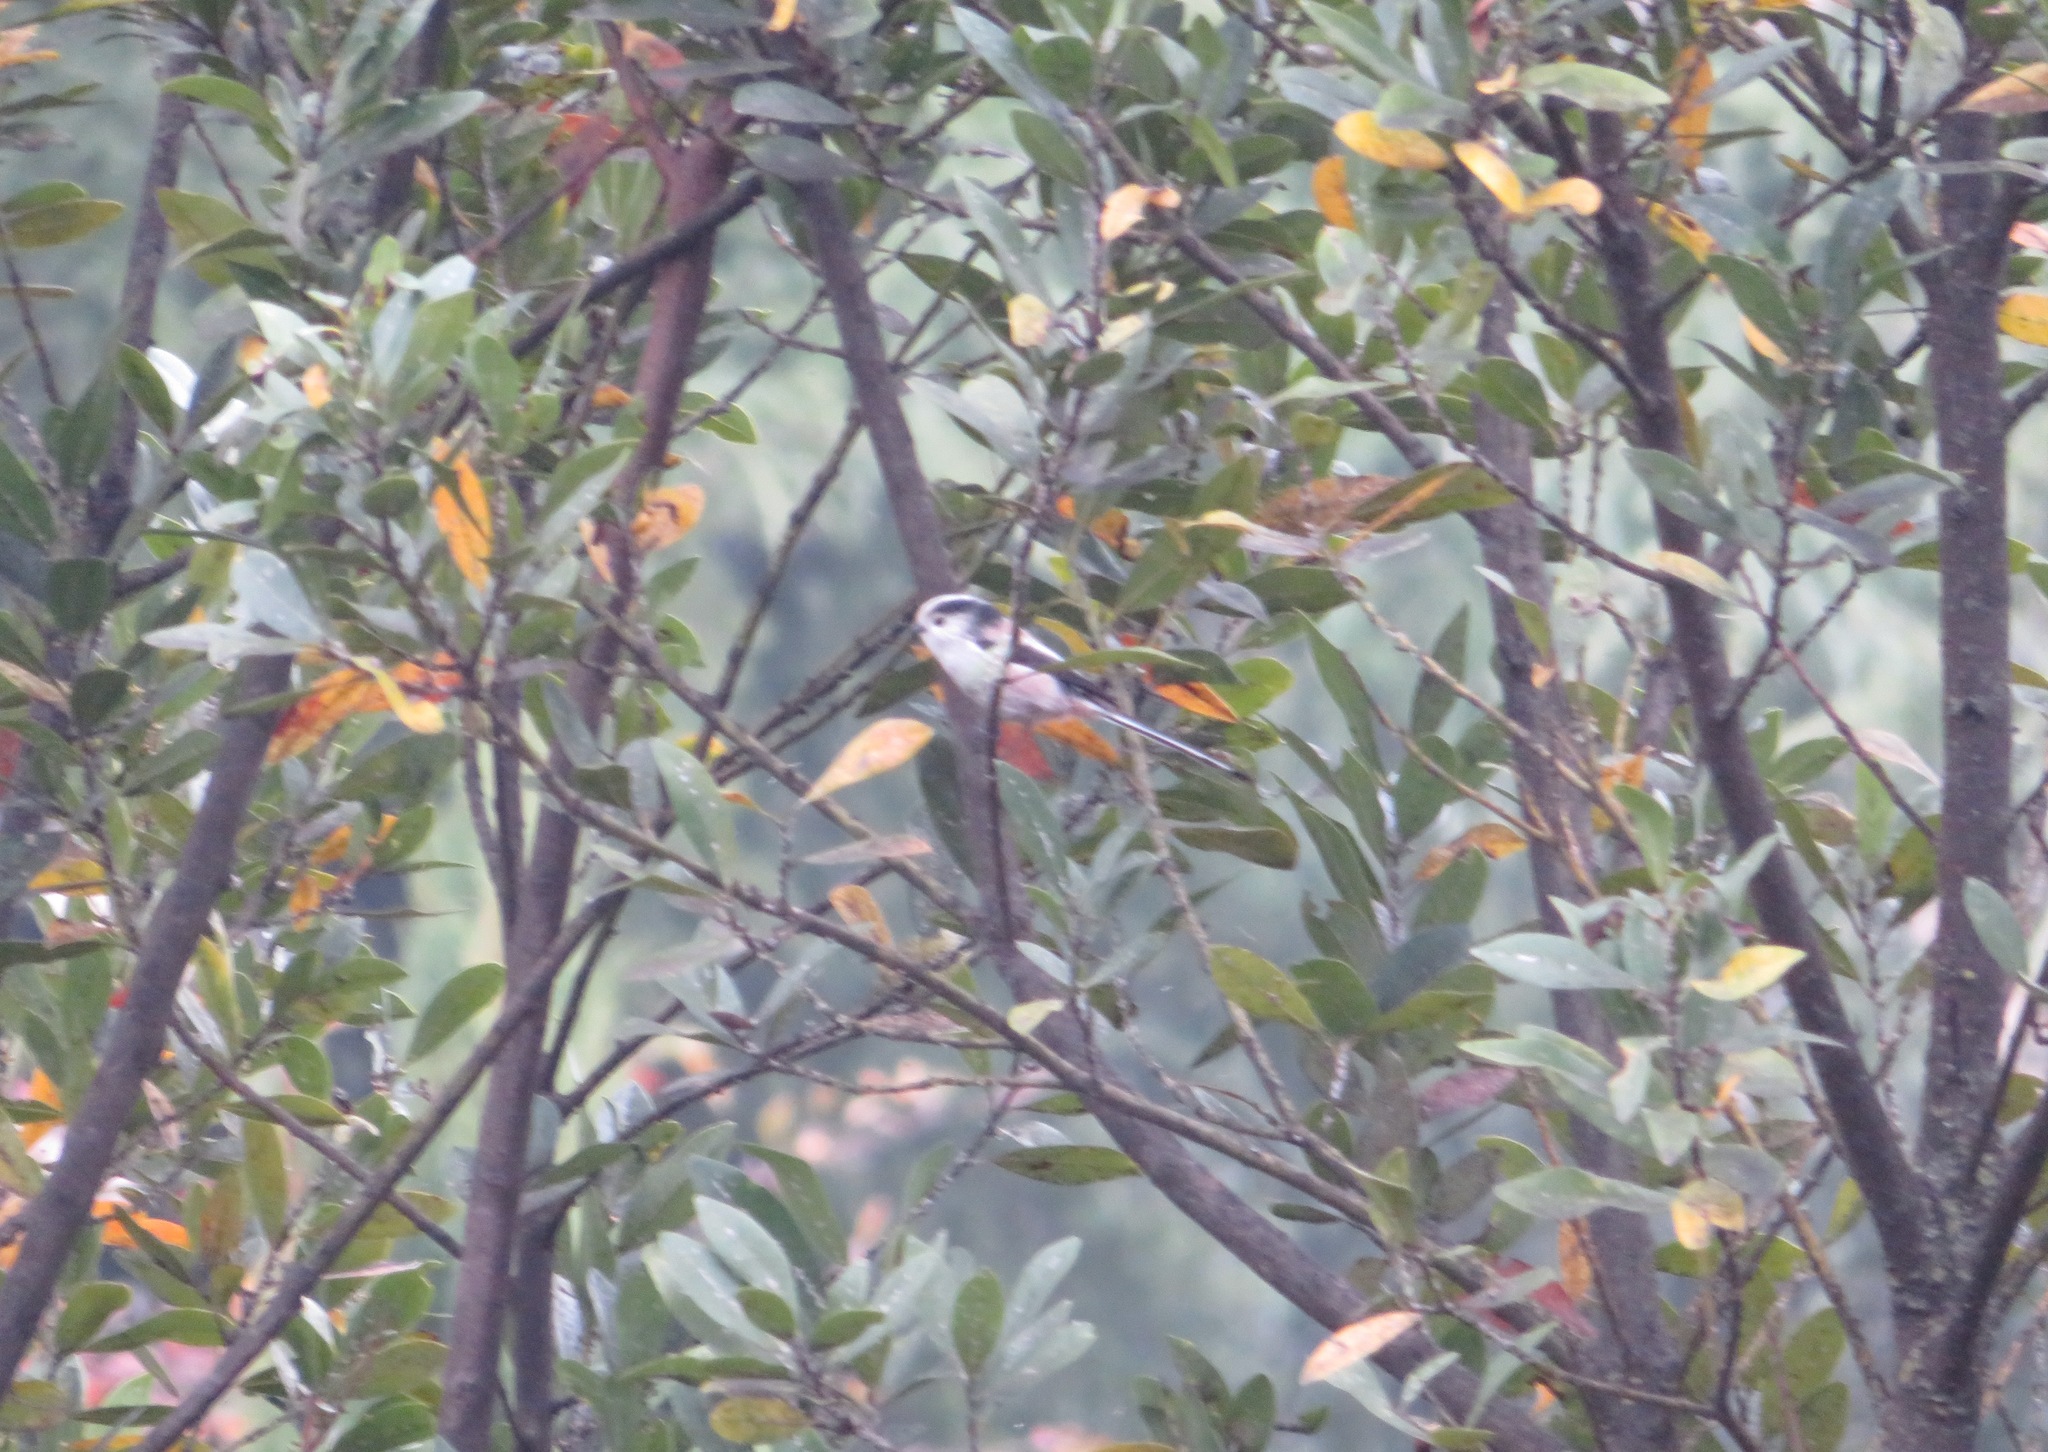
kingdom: Animalia
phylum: Chordata
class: Aves
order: Passeriformes
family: Aegithalidae
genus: Aegithalos
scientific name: Aegithalos caudatus
